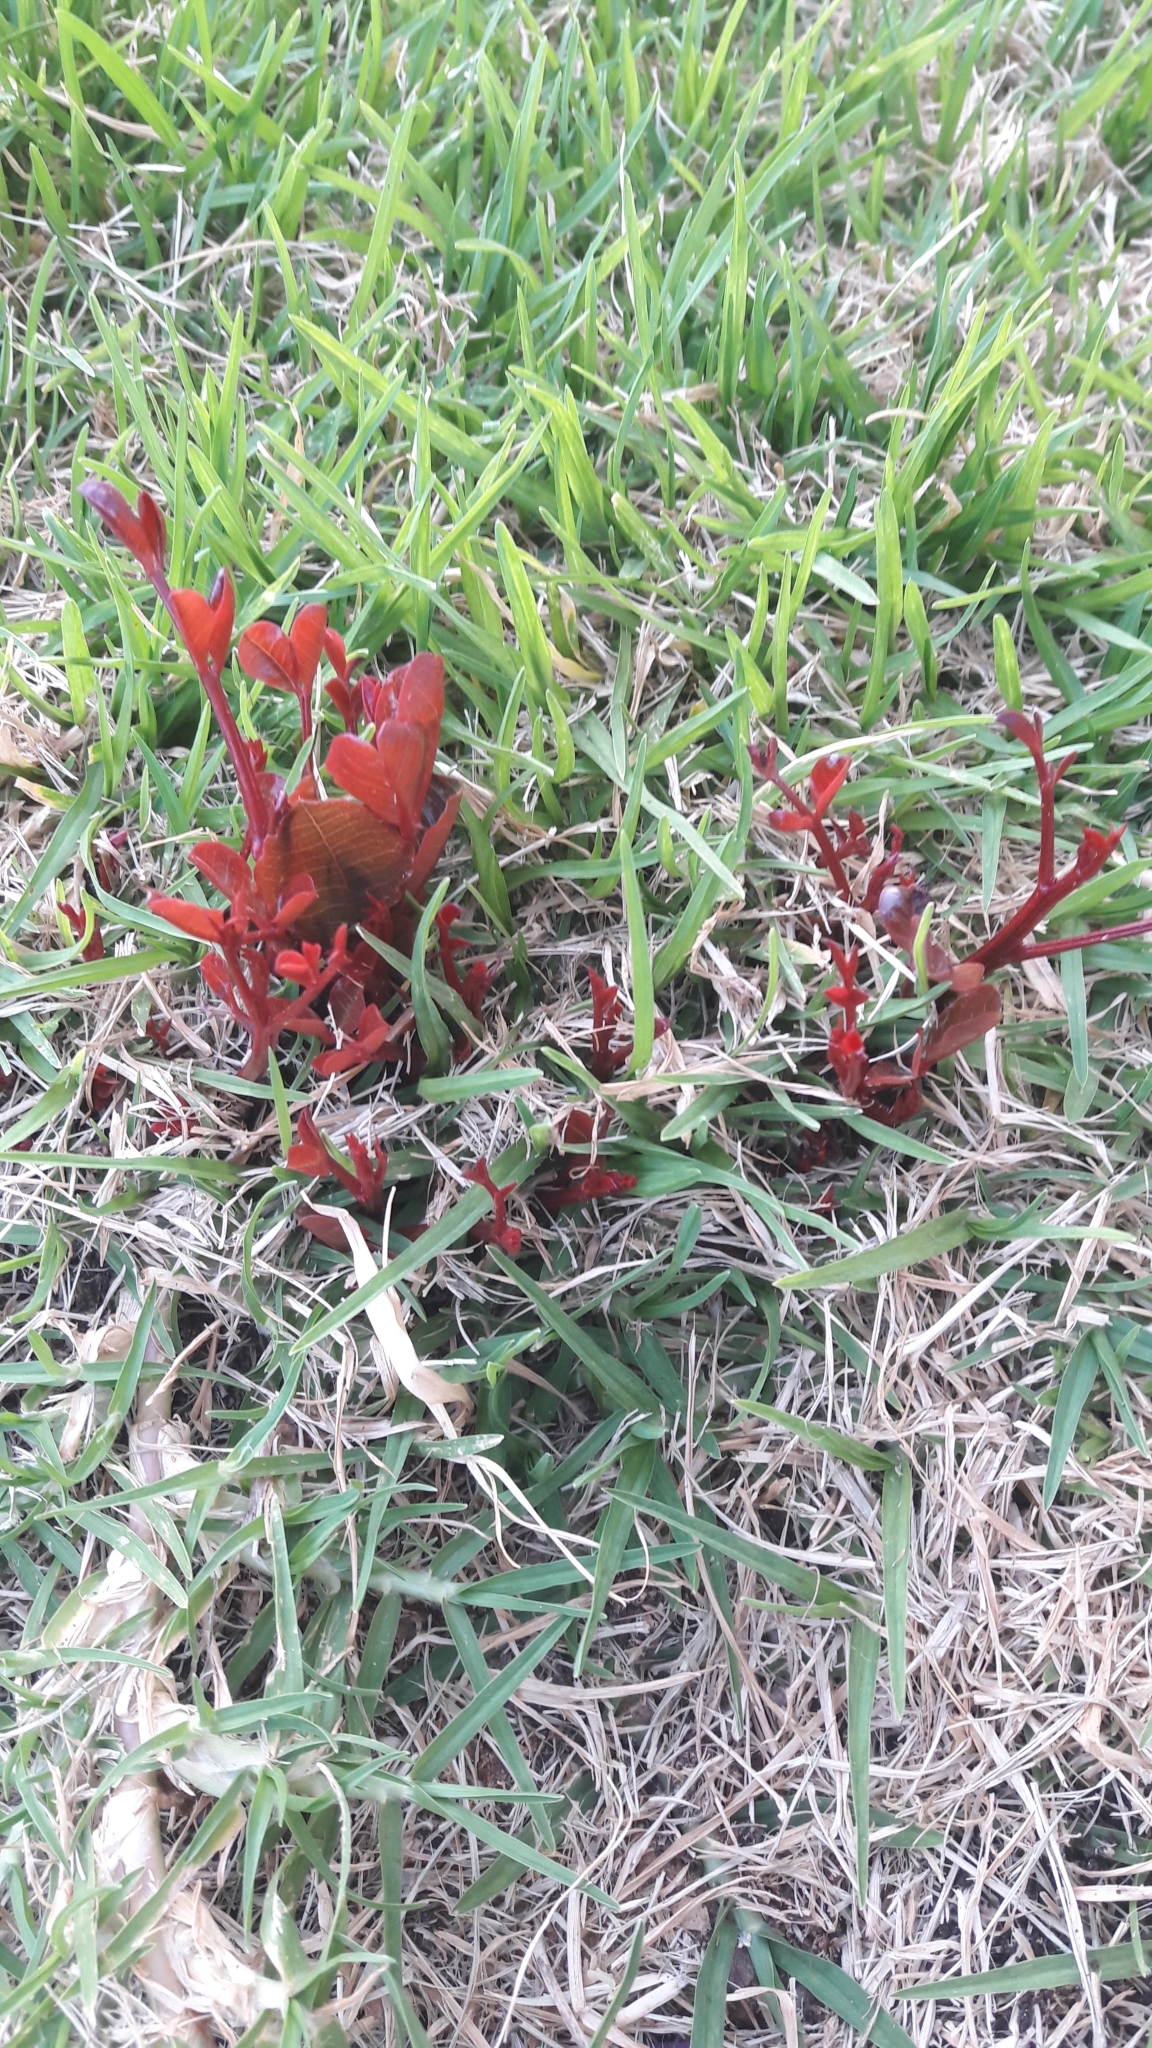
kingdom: Plantae
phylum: Tracheophyta
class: Magnoliopsida
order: Brassicales
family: Capparaceae
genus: Capparis
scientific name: Capparis spinosa
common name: Caper
